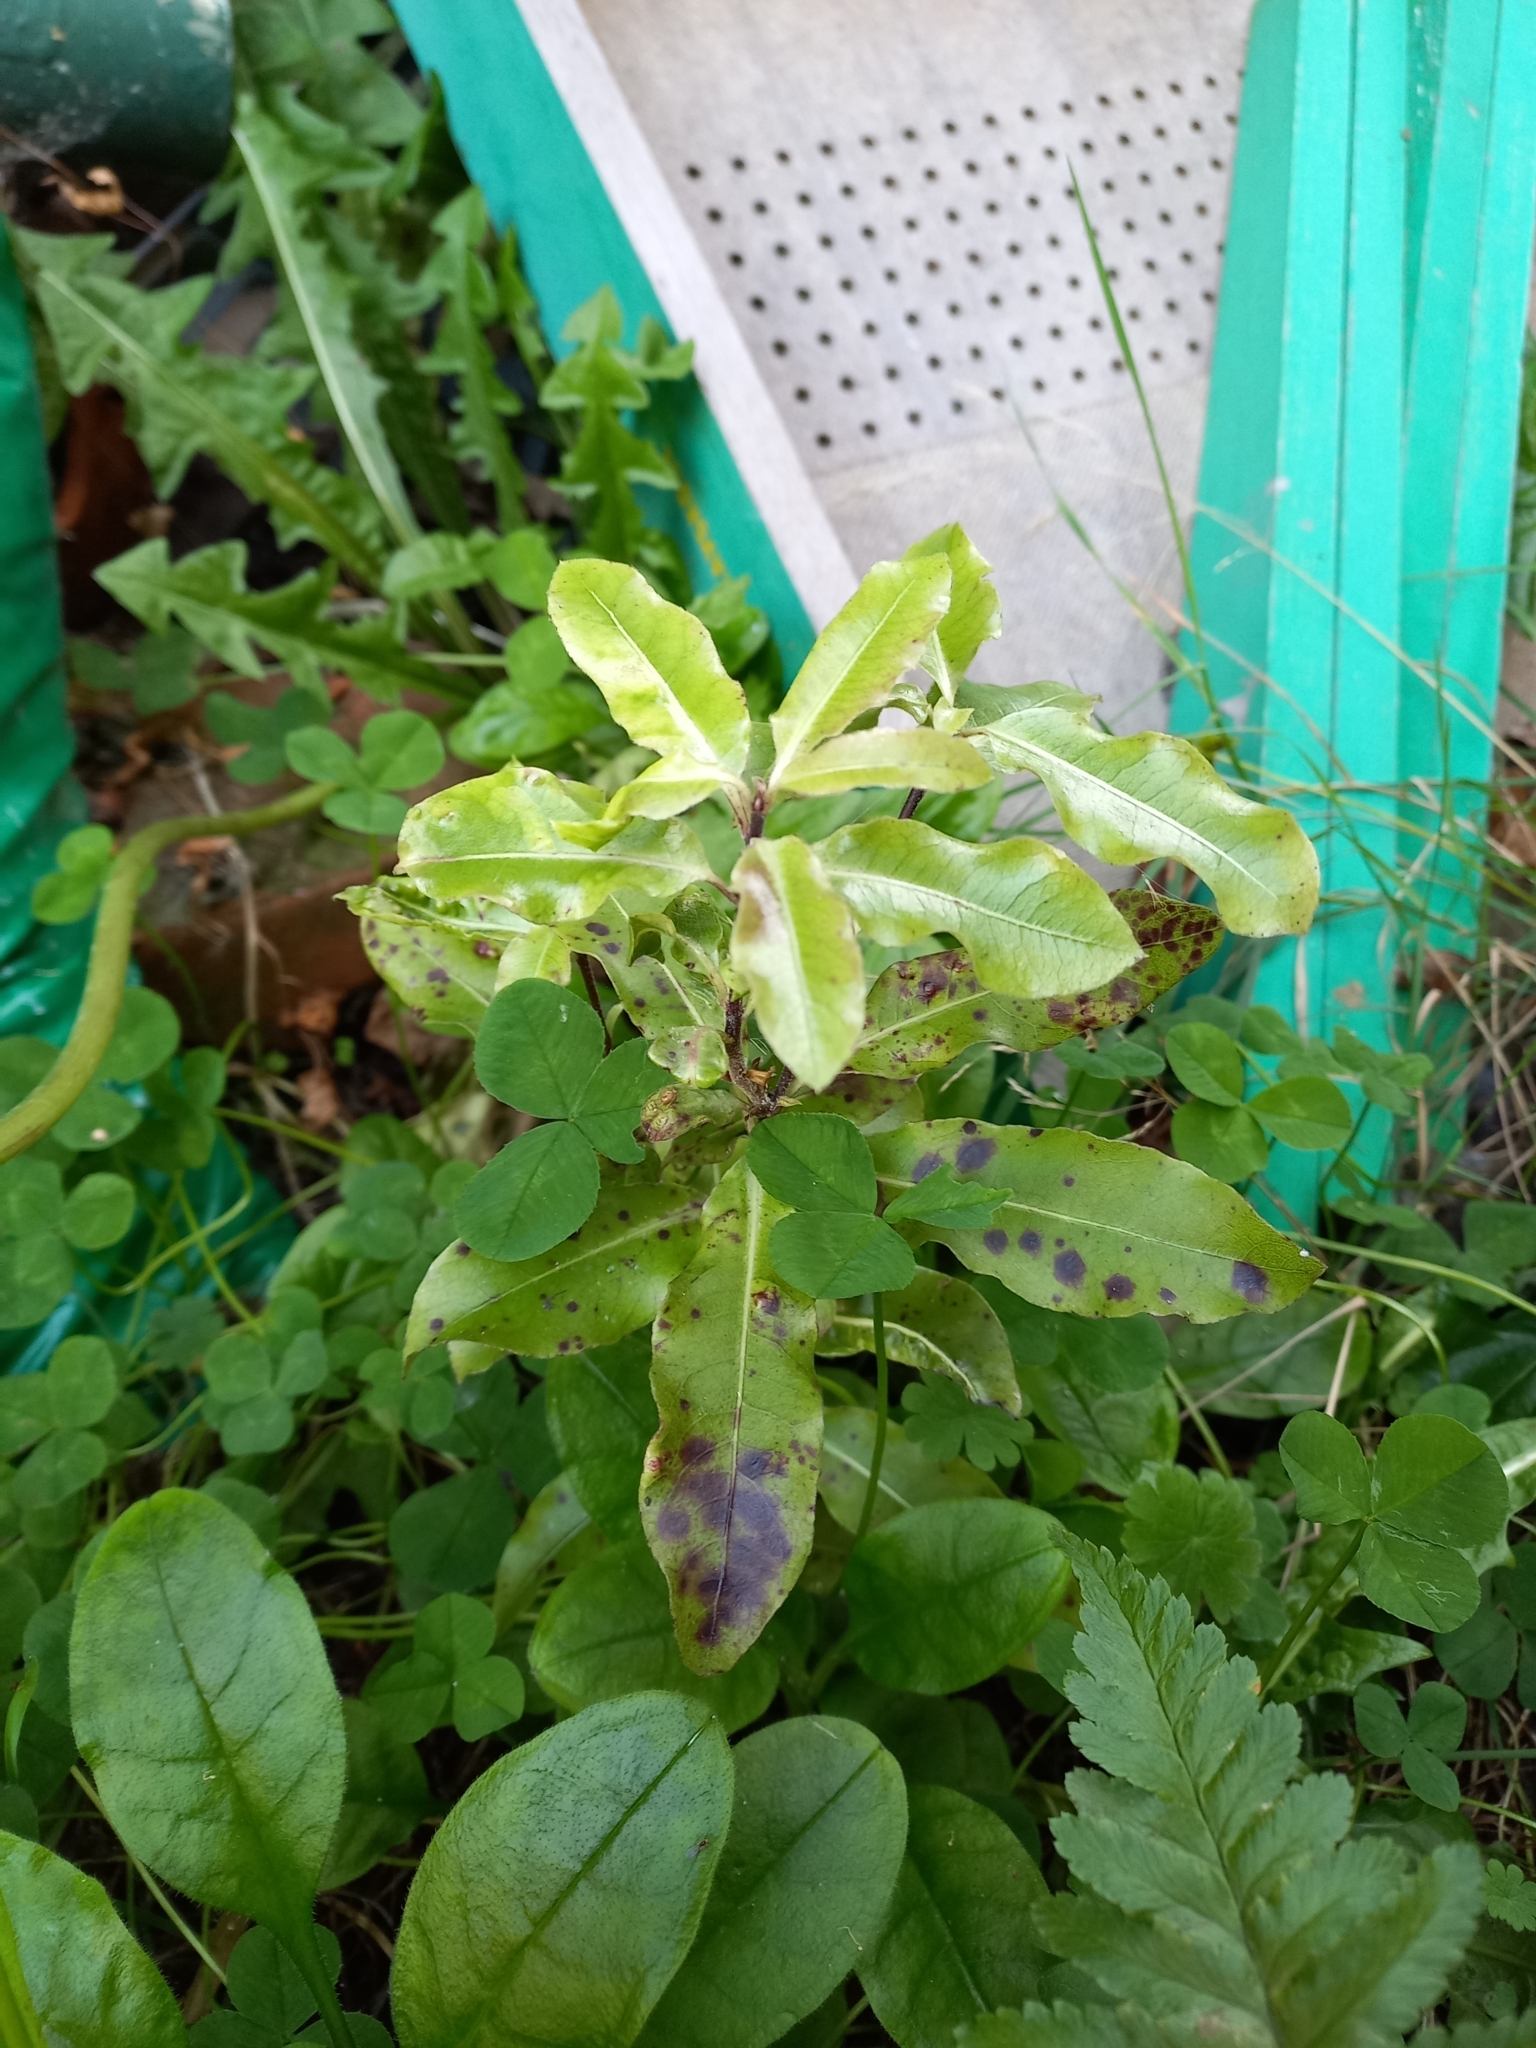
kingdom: Plantae
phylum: Tracheophyta
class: Magnoliopsida
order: Apiales
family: Pittosporaceae
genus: Pittosporum
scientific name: Pittosporum tenuifolium
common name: Kohuhu
